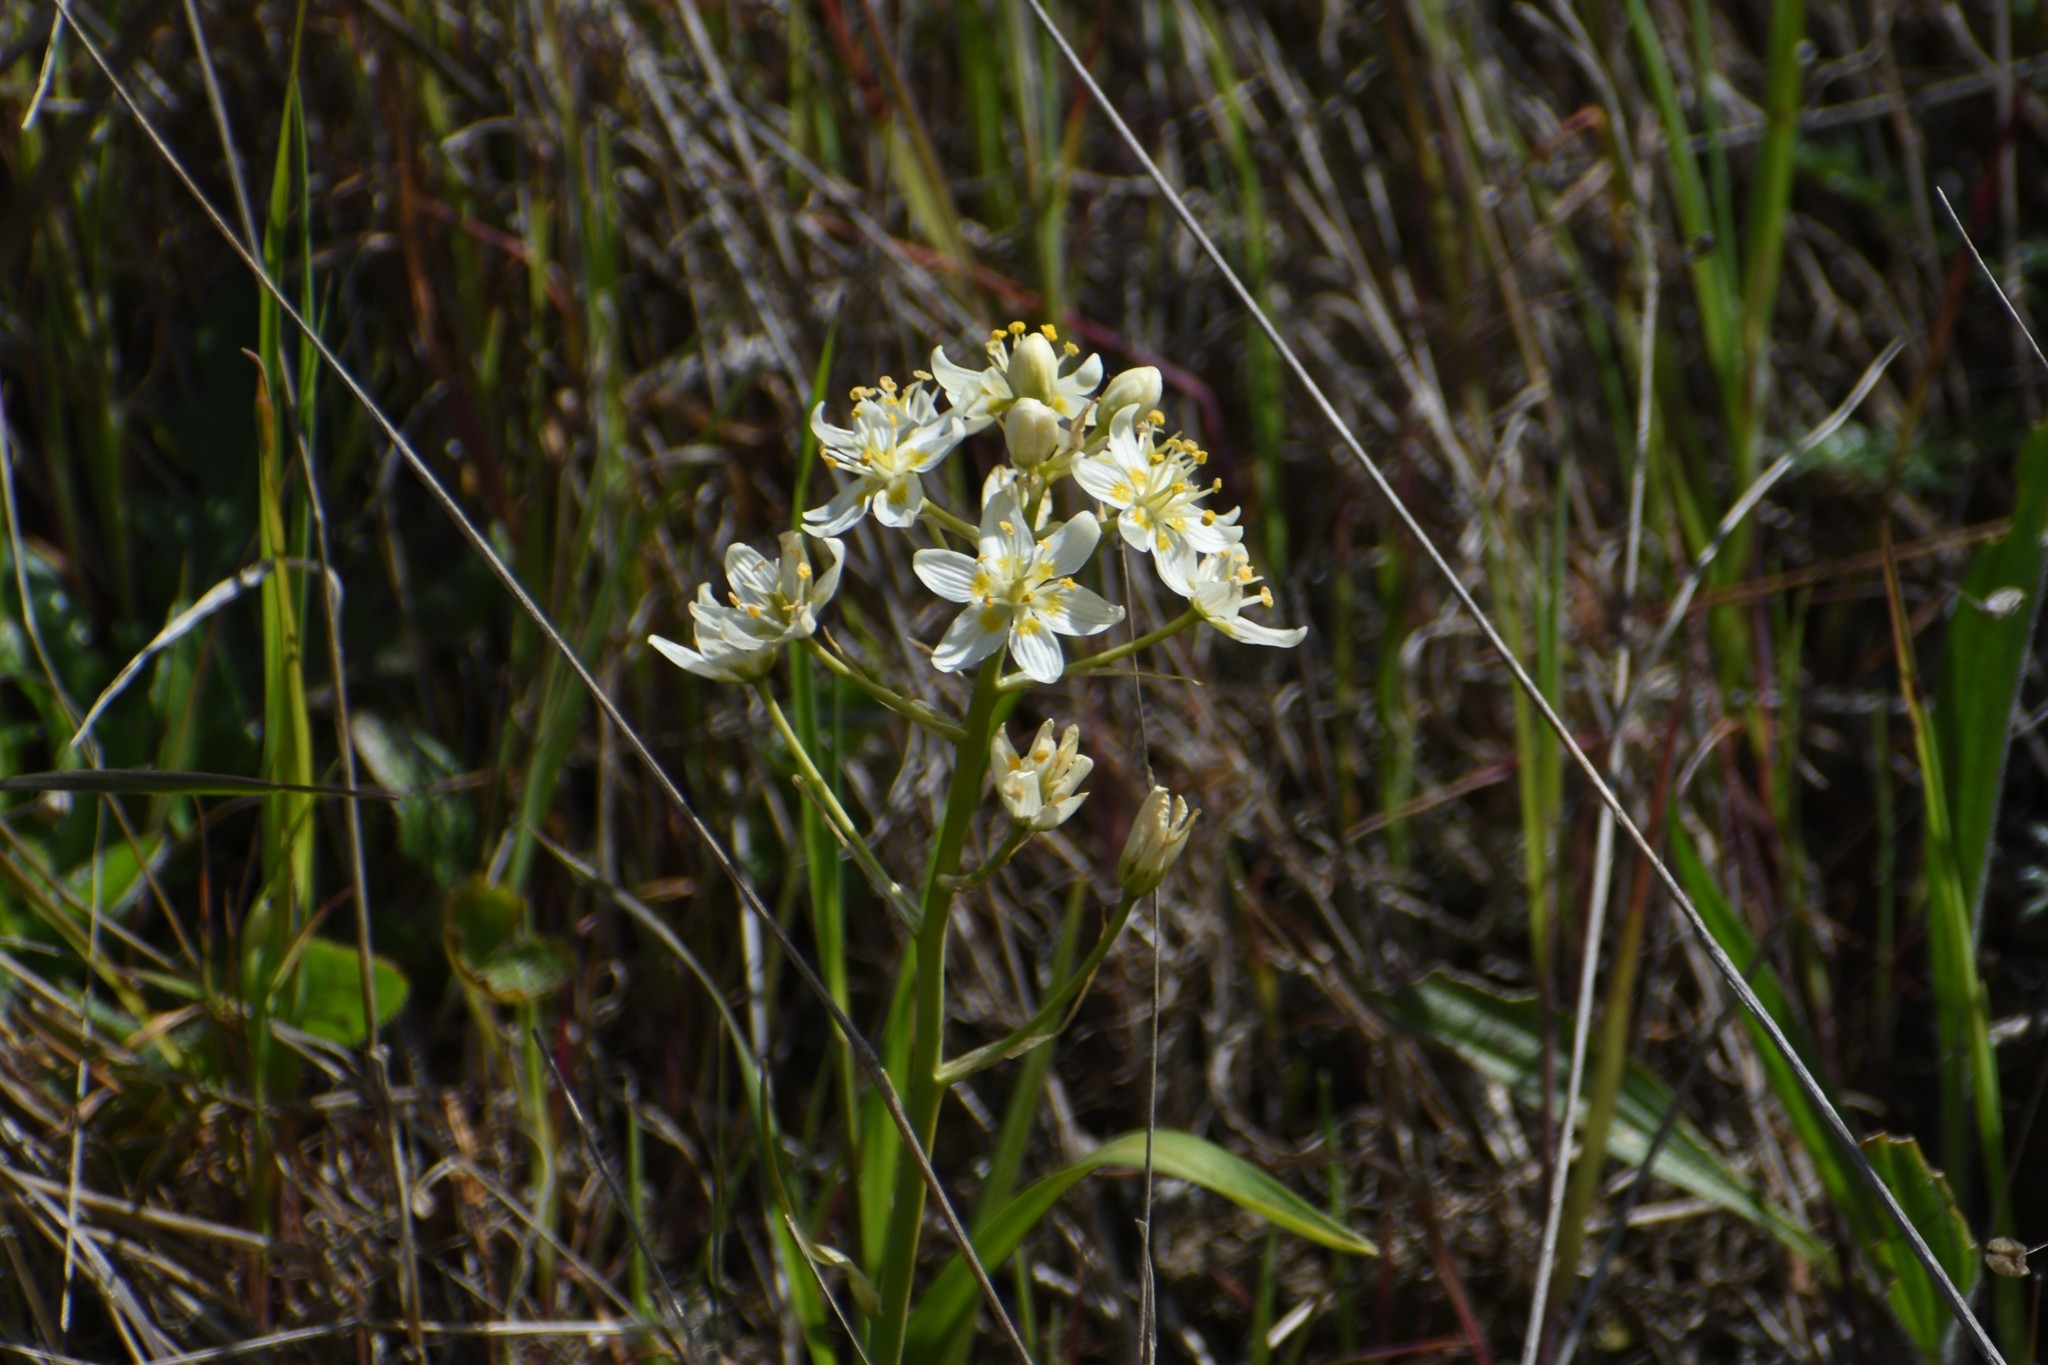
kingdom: Plantae
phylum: Tracheophyta
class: Liliopsida
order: Liliales
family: Melanthiaceae
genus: Toxicoscordion
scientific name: Toxicoscordion fremontii
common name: Fremont's death camas
